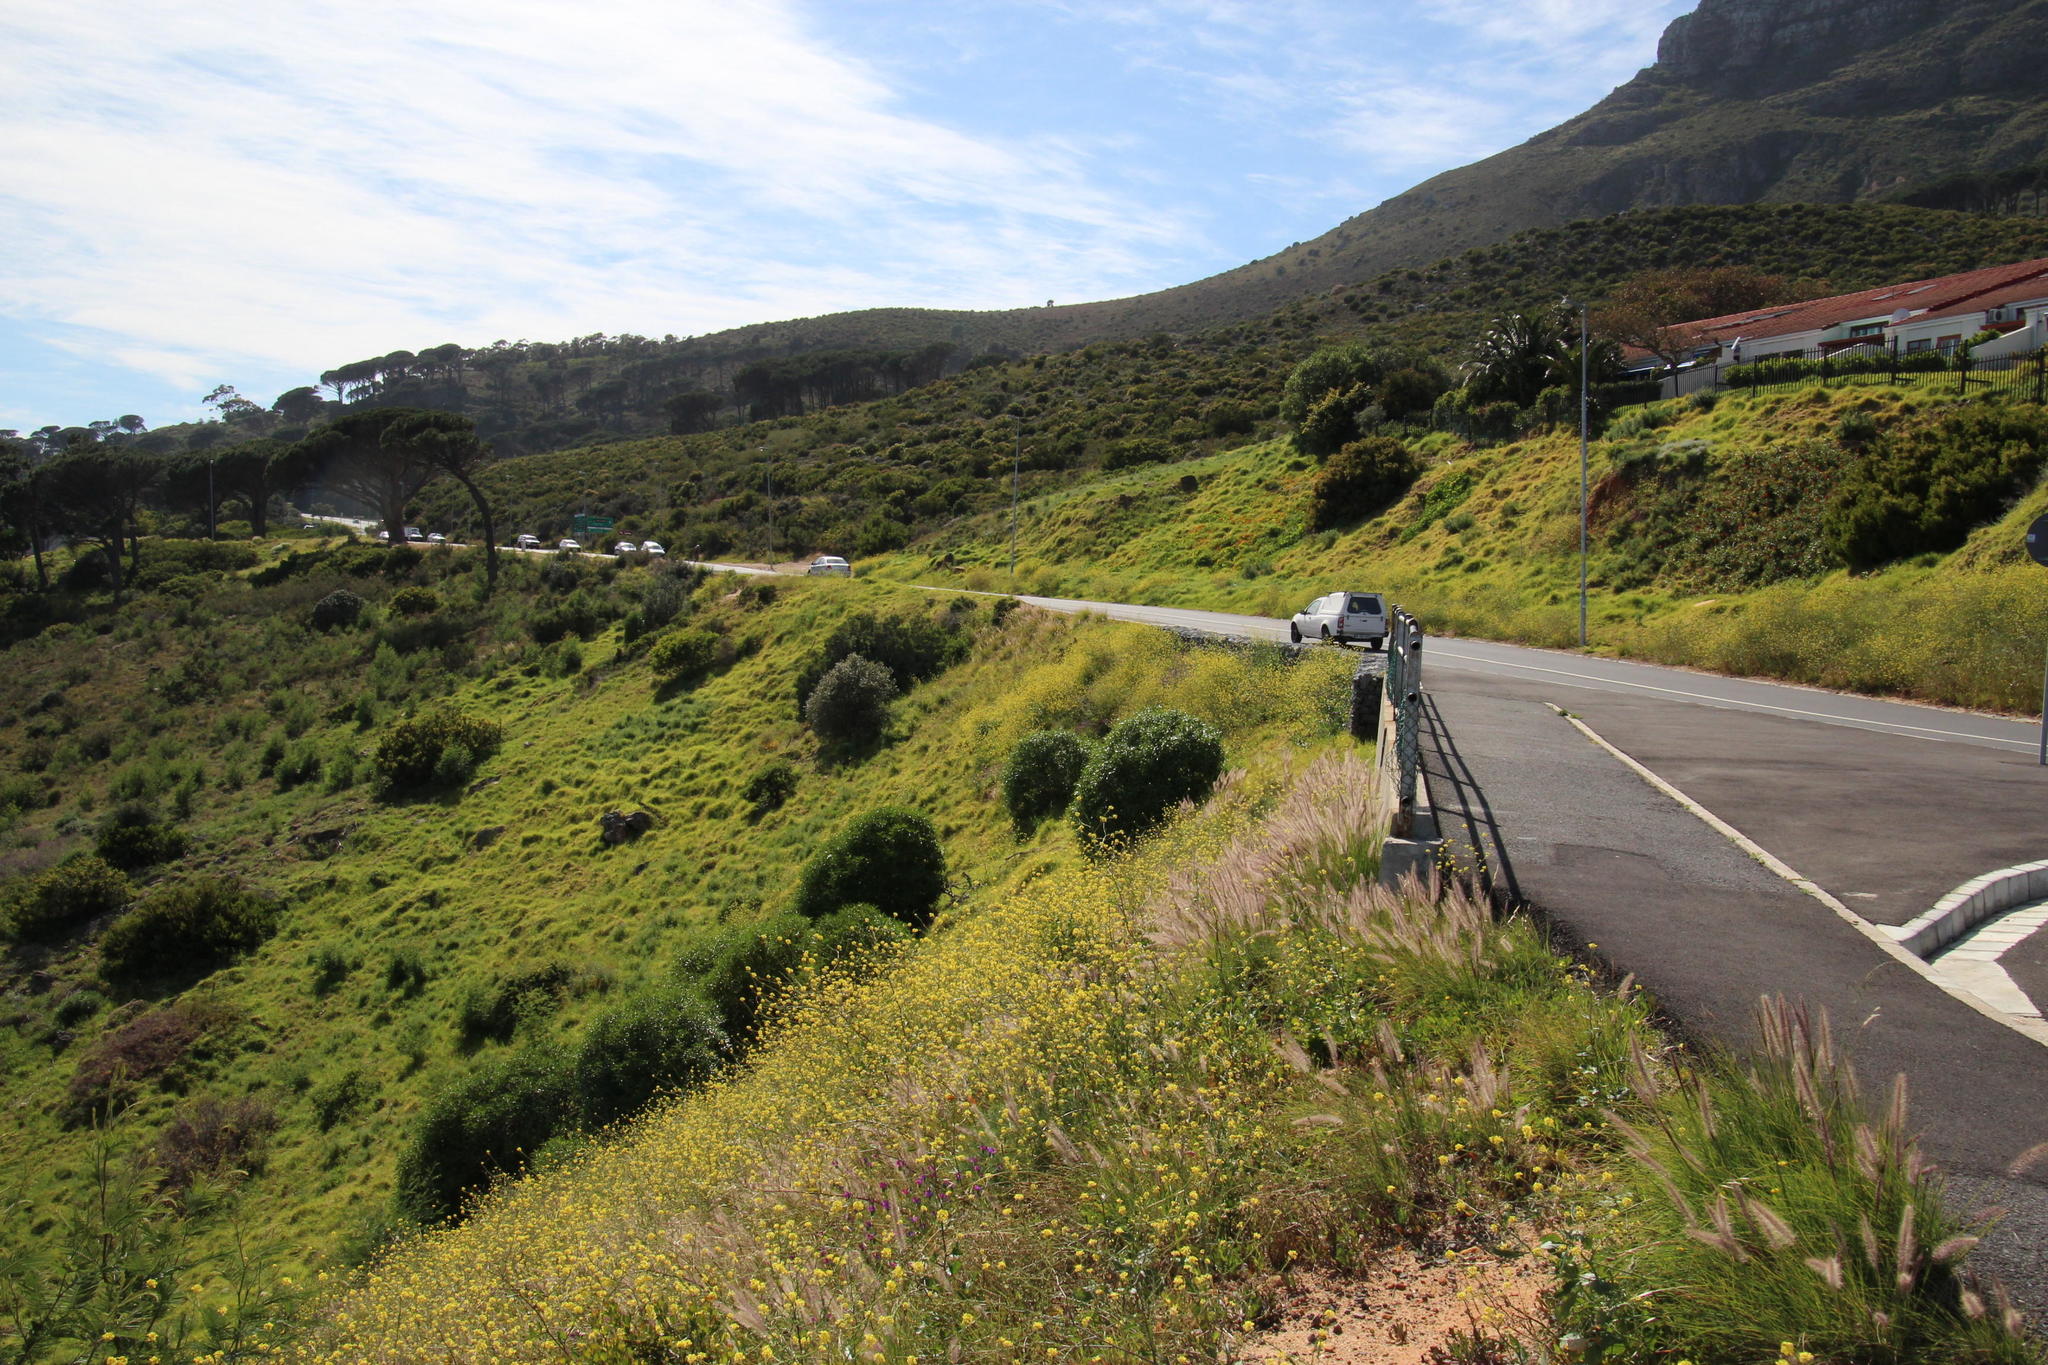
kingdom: Plantae
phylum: Tracheophyta
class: Magnoliopsida
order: Brassicales
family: Brassicaceae
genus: Rapistrum
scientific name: Rapistrum rugosum
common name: Annual bastardcabbage
